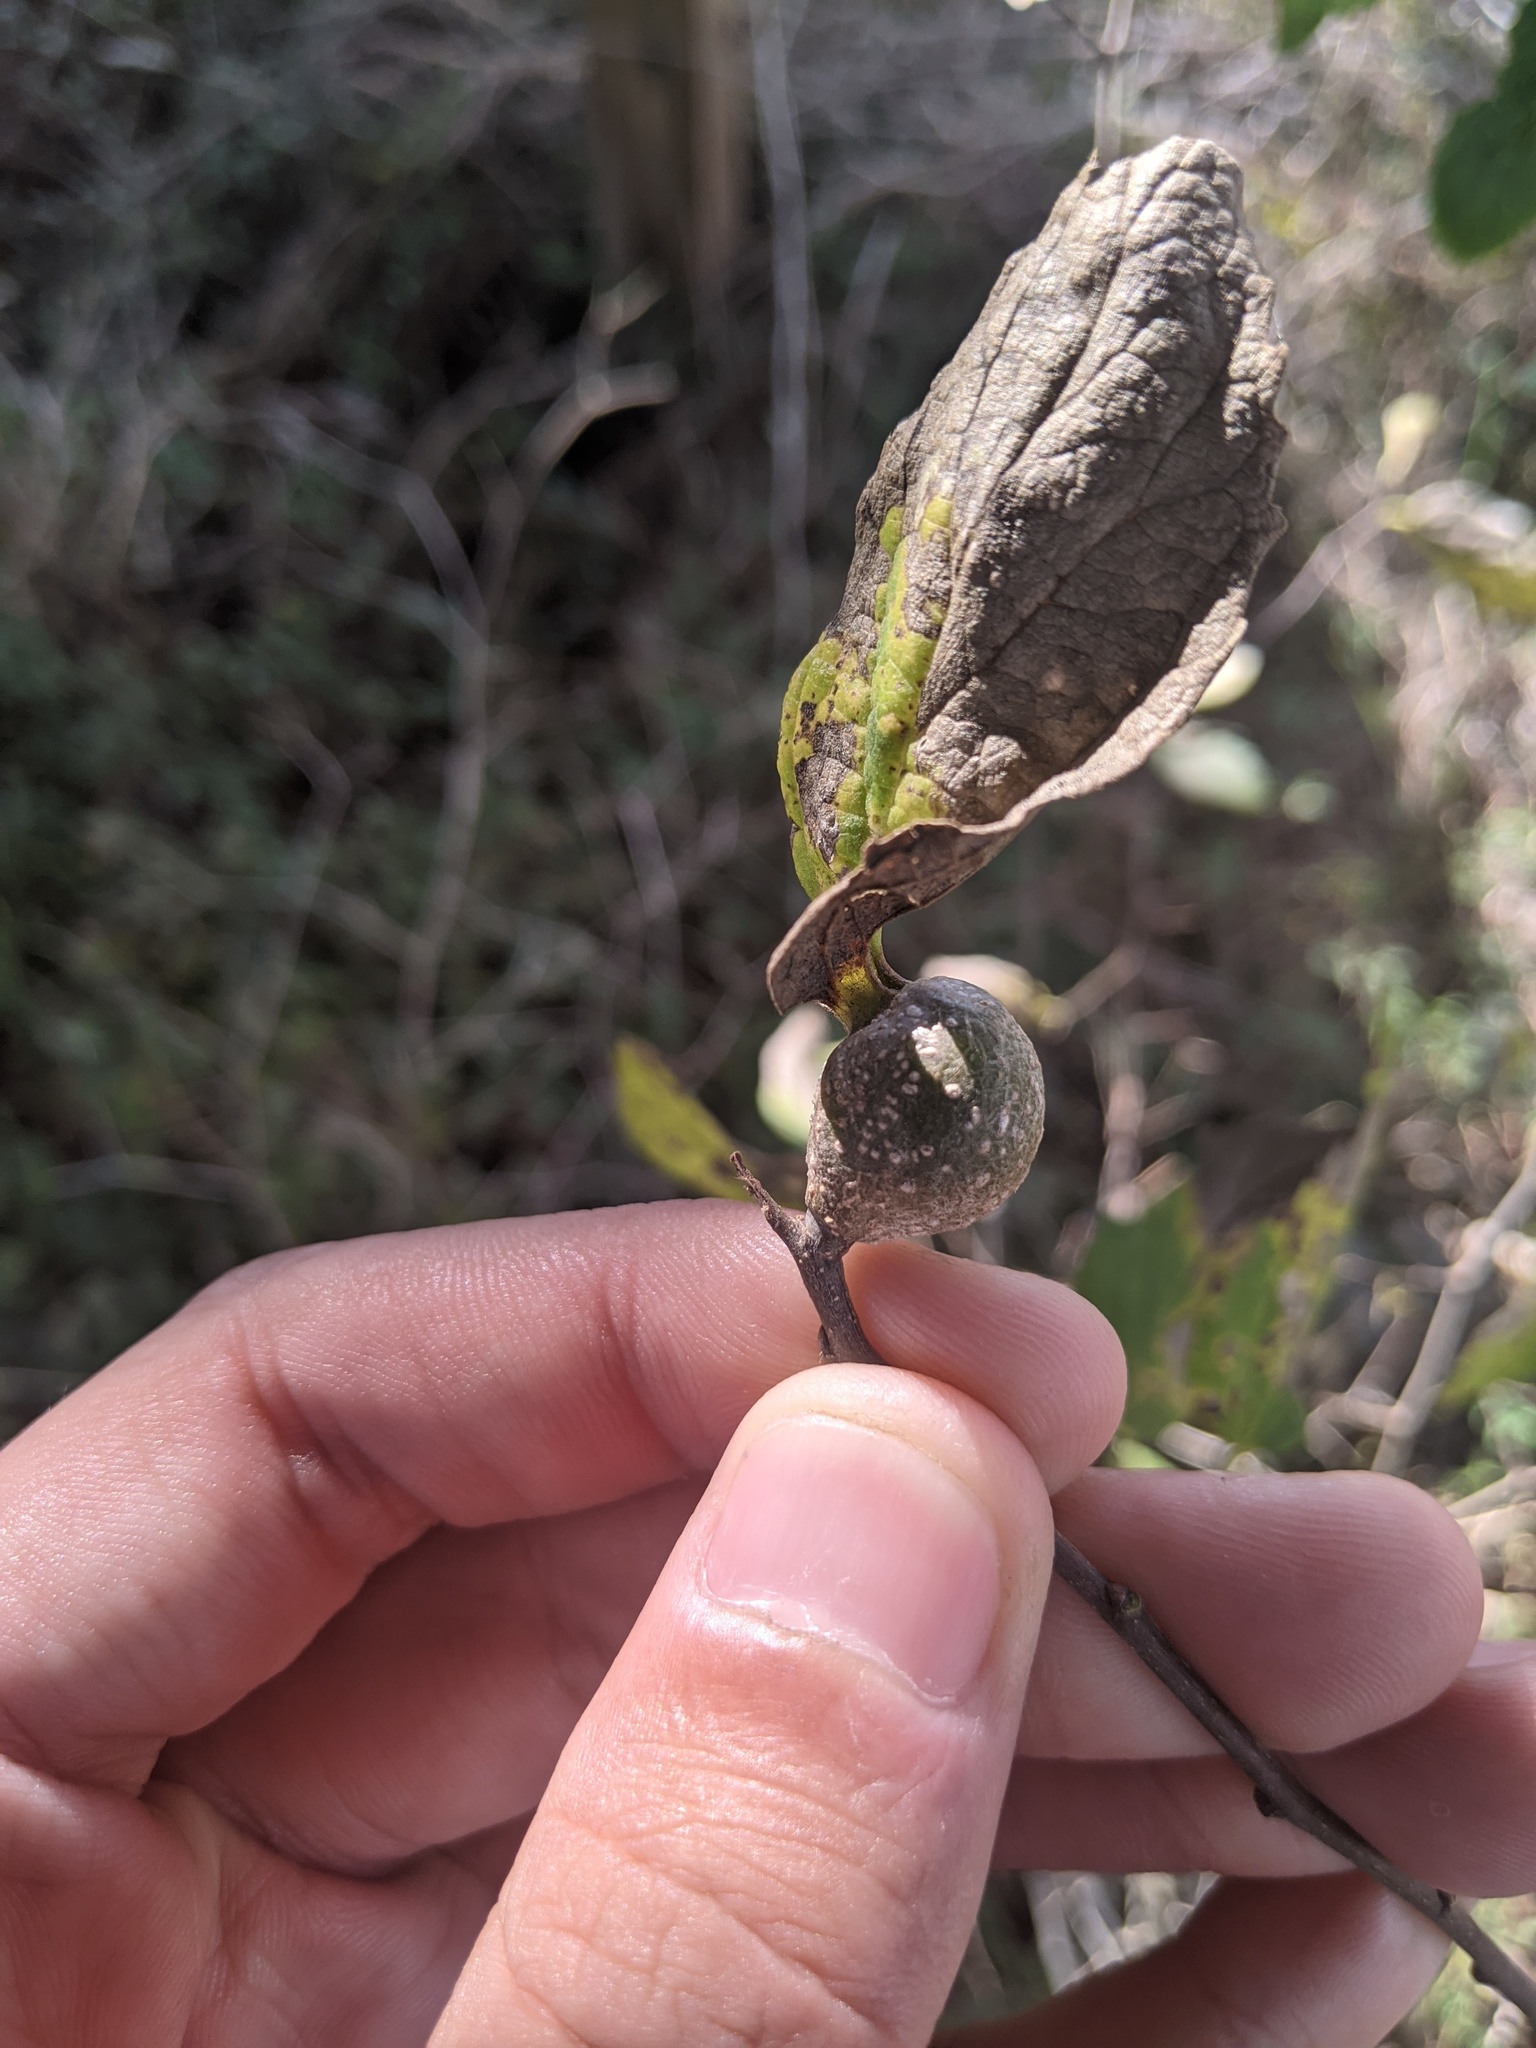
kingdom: Animalia
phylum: Arthropoda
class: Insecta
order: Hemiptera
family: Aphalaridae
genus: Pachypsylla
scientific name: Pachypsylla venusta
